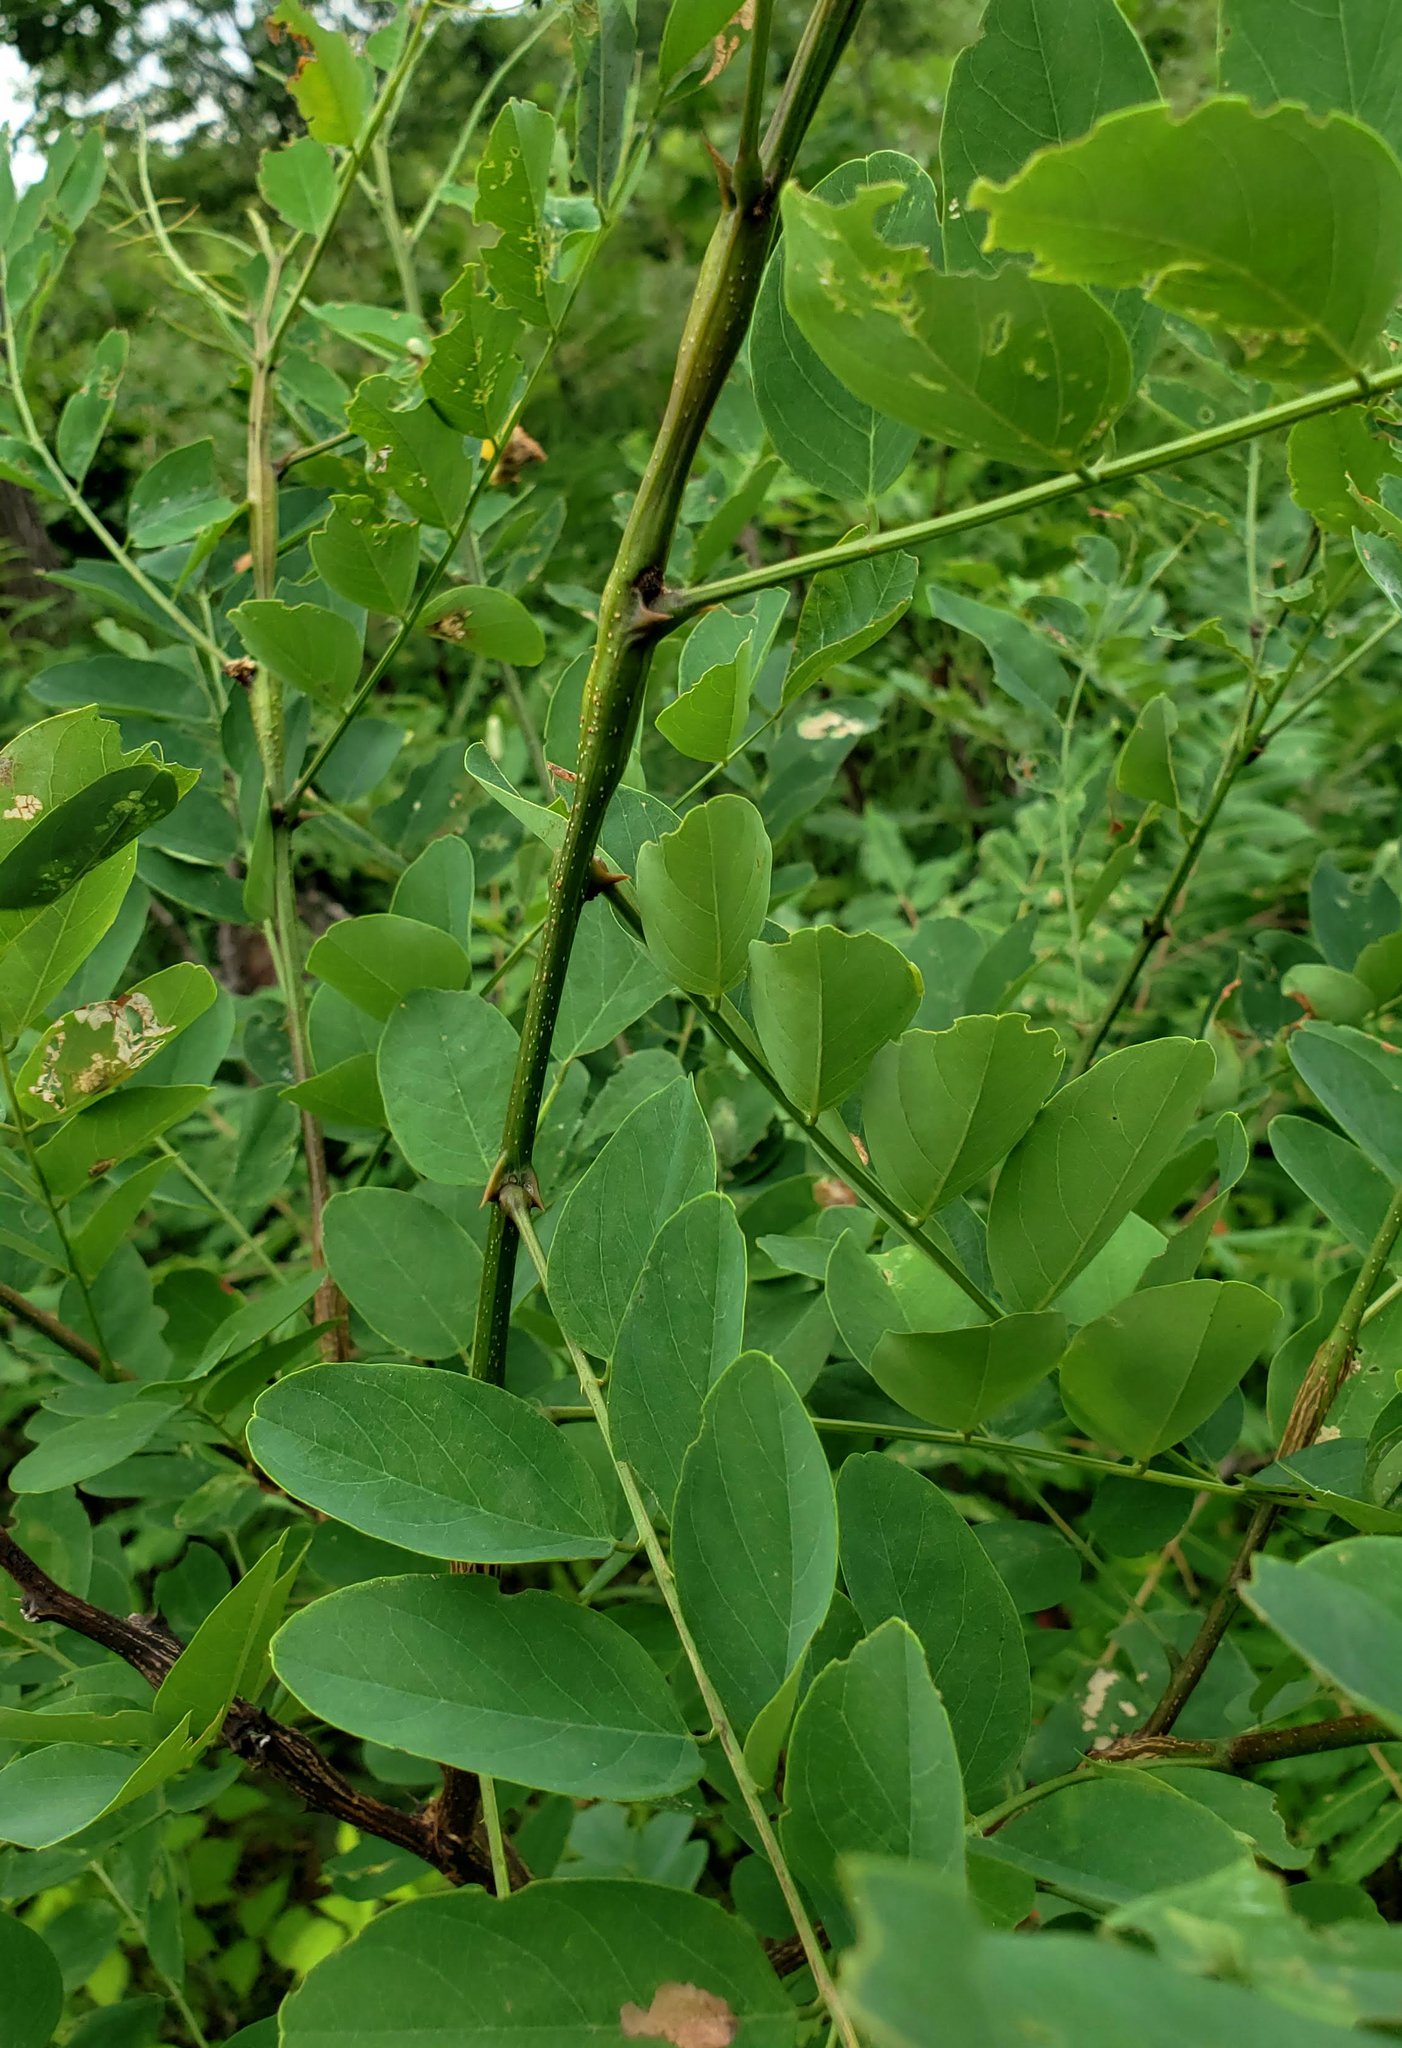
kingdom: Plantae
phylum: Tracheophyta
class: Magnoliopsida
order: Fabales
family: Fabaceae
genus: Robinia
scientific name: Robinia pseudoacacia
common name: Black locust
